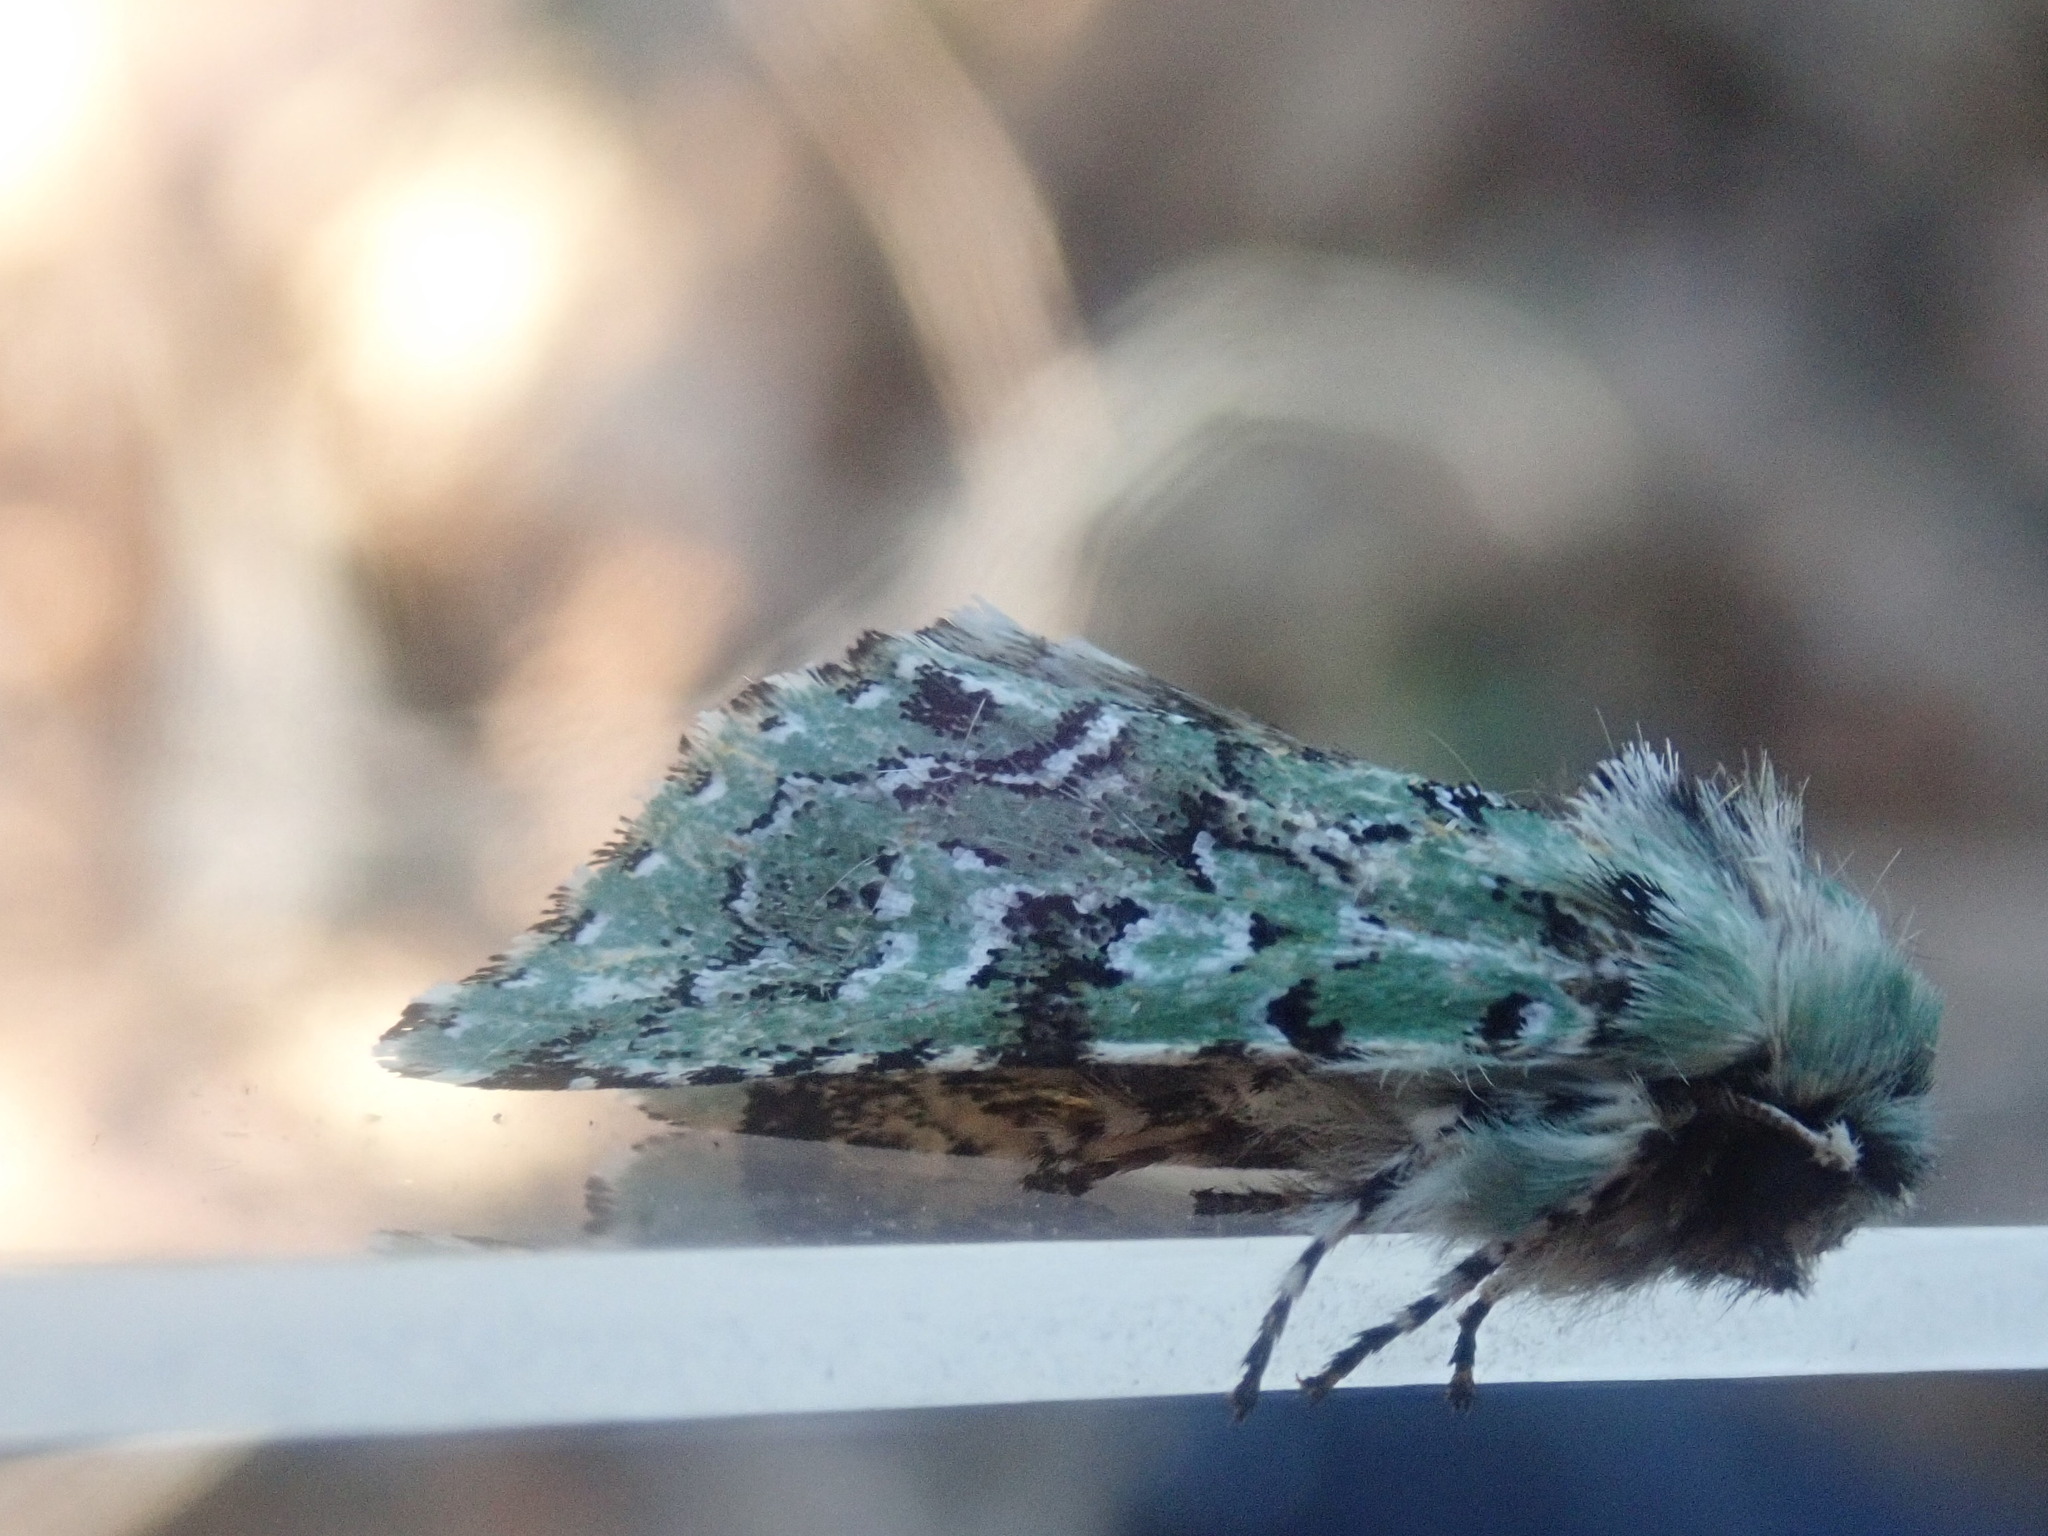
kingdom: Animalia
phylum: Arthropoda
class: Insecta
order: Lepidoptera
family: Noctuidae
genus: Feralia
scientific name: Feralia jocosa
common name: Joker
